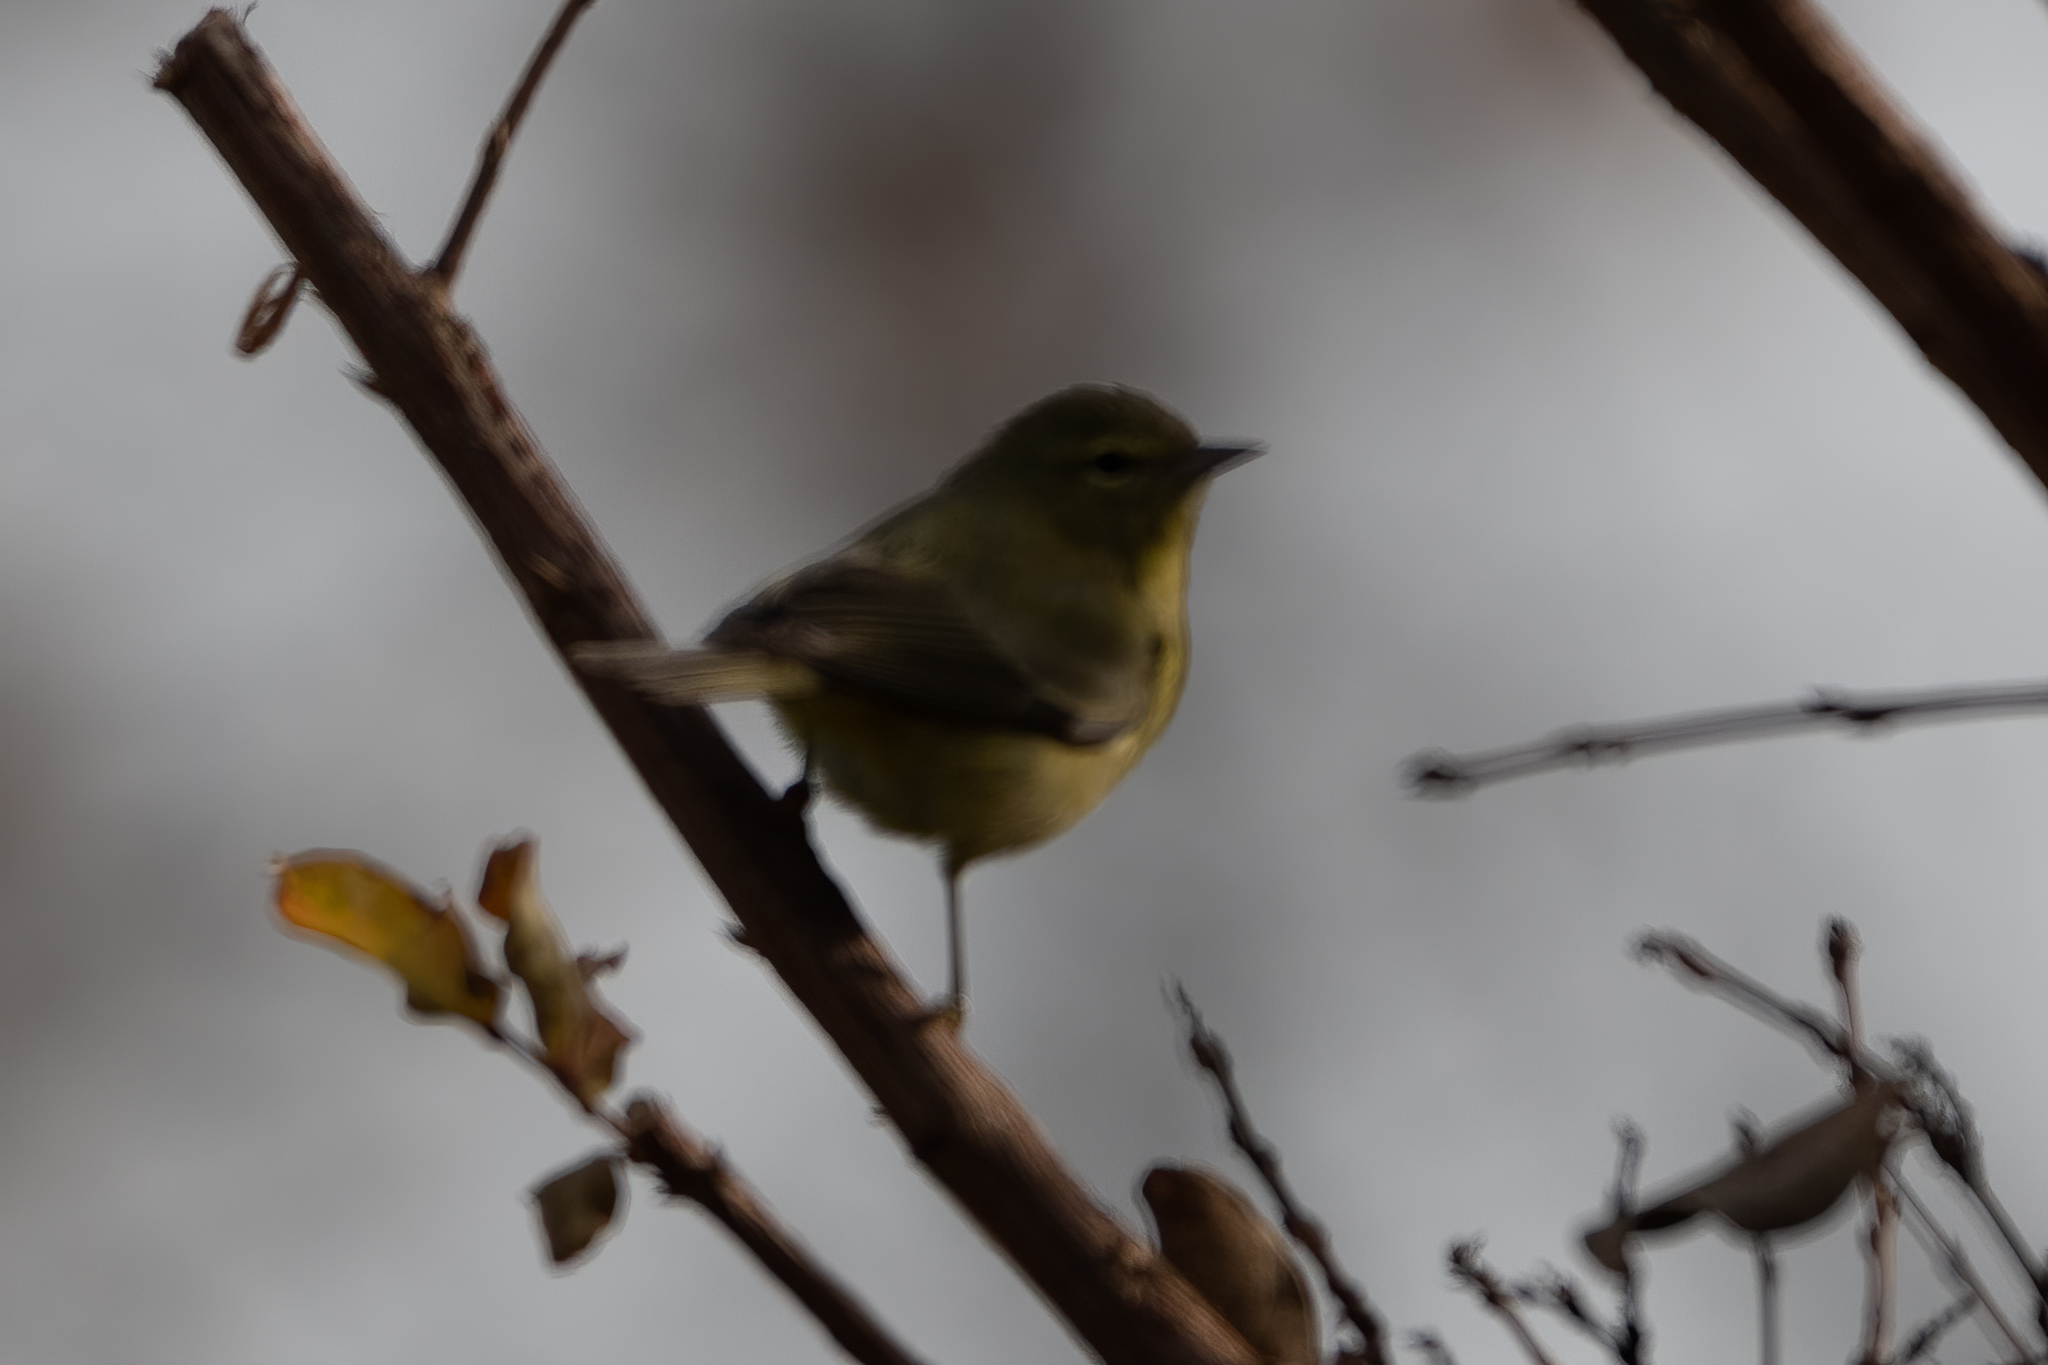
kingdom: Animalia
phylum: Chordata
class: Aves
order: Passeriformes
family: Parulidae
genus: Leiothlypis
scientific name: Leiothlypis celata
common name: Orange-crowned warbler
